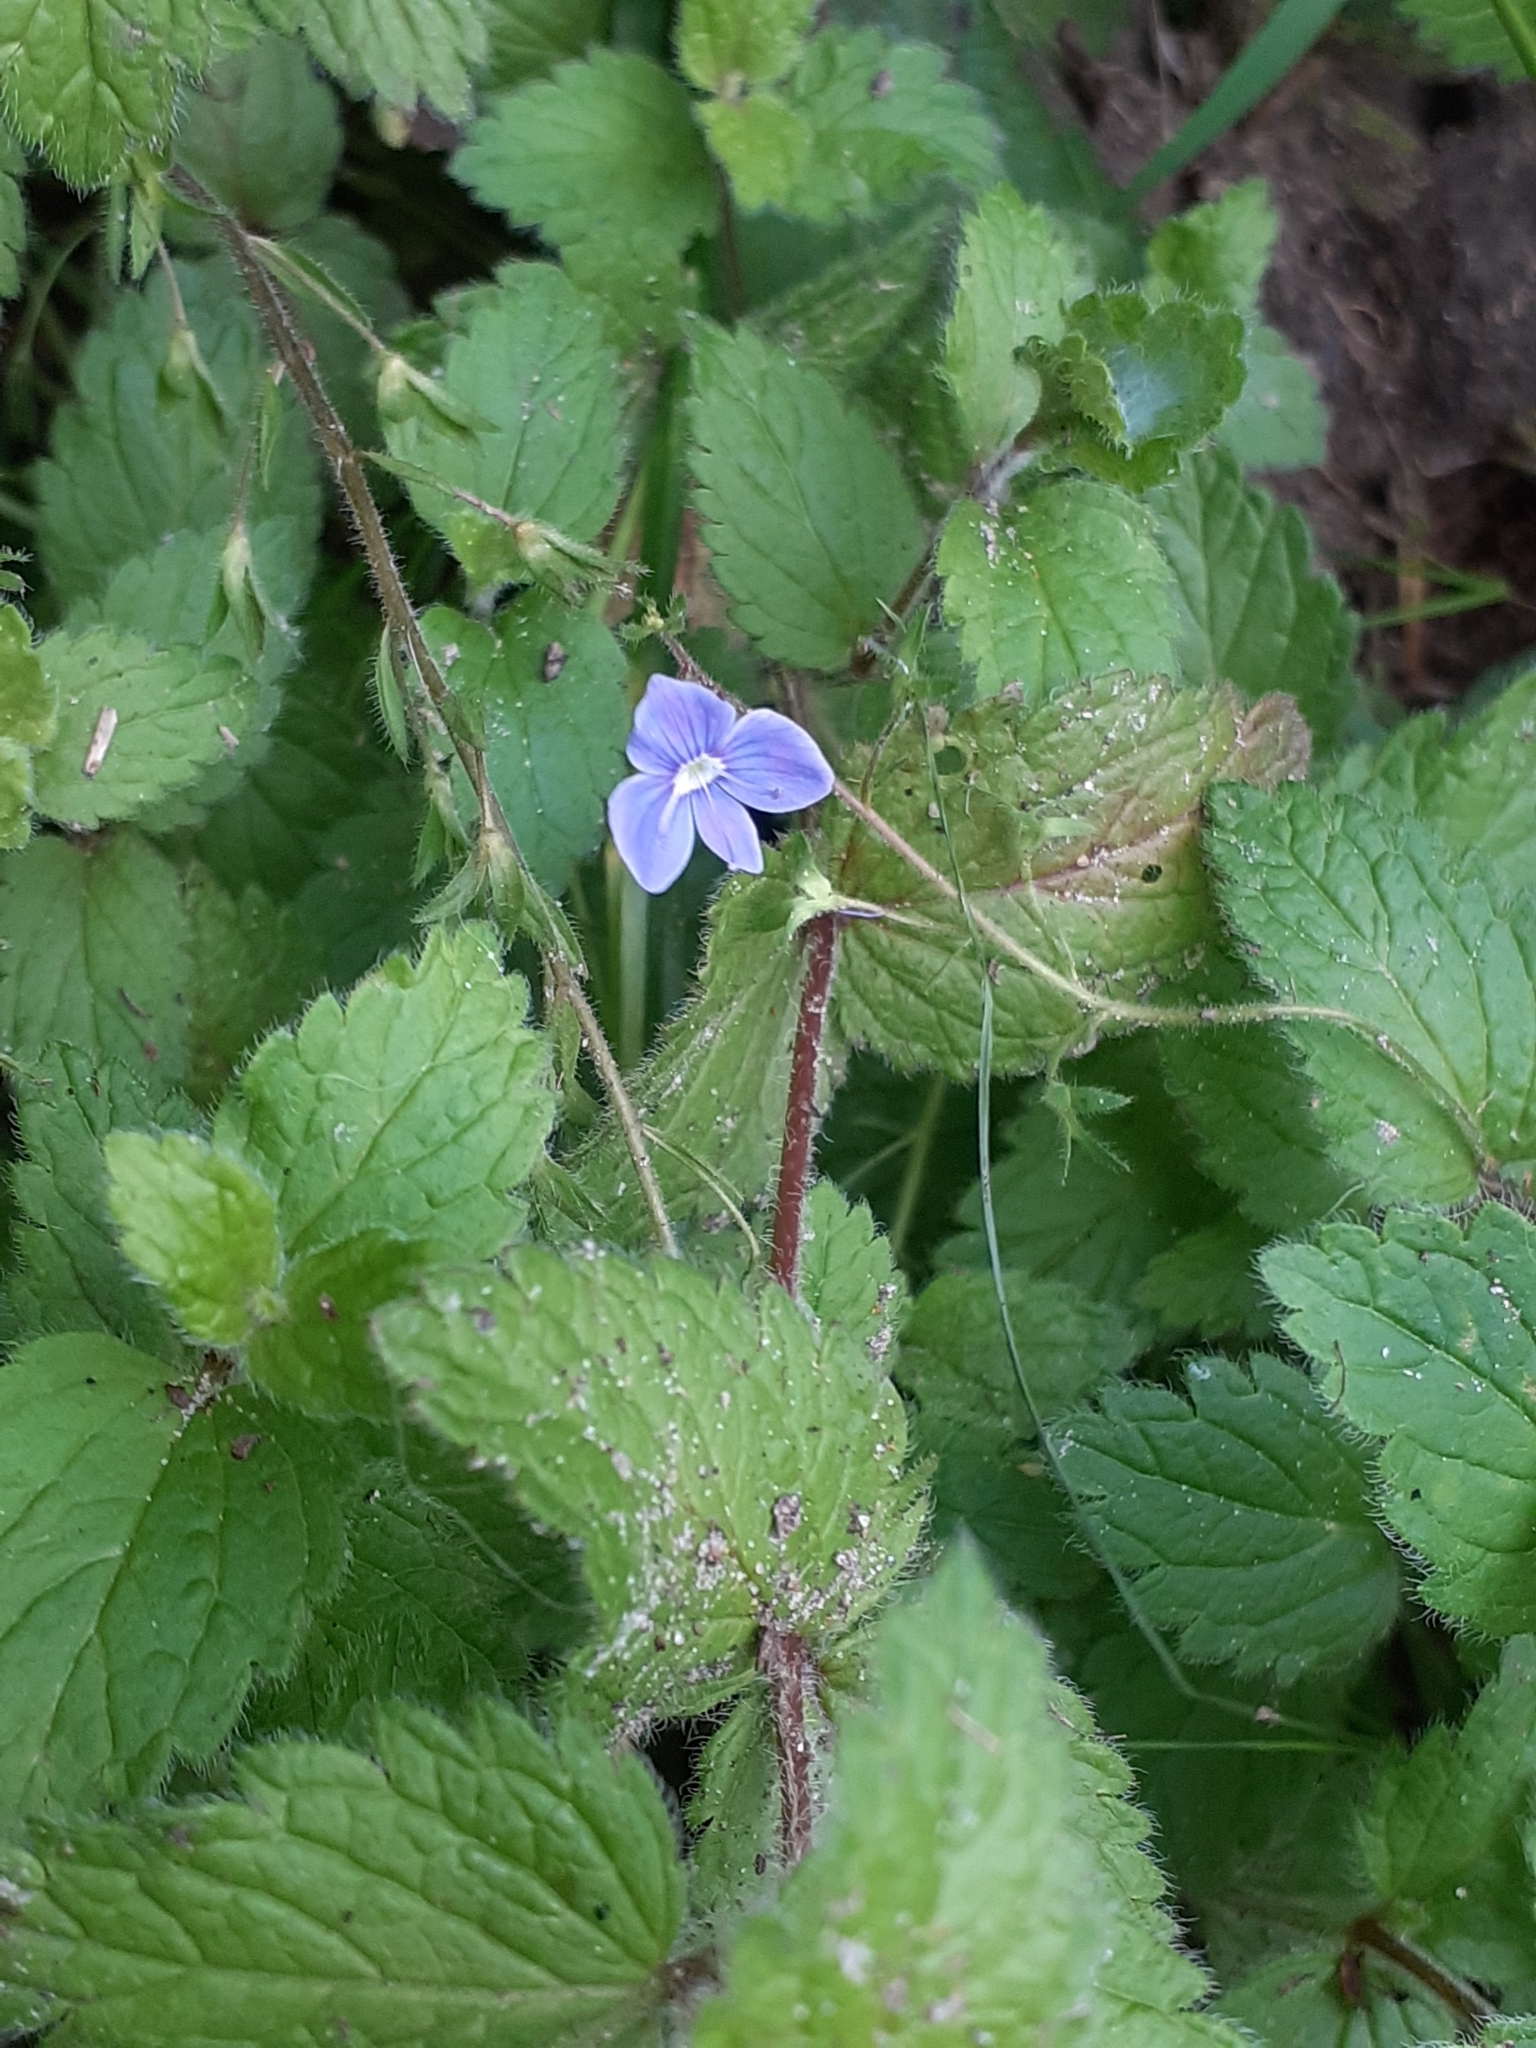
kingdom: Plantae
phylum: Tracheophyta
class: Magnoliopsida
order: Lamiales
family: Plantaginaceae
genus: Veronica
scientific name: Veronica chamaedrys
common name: Germander speedwell
